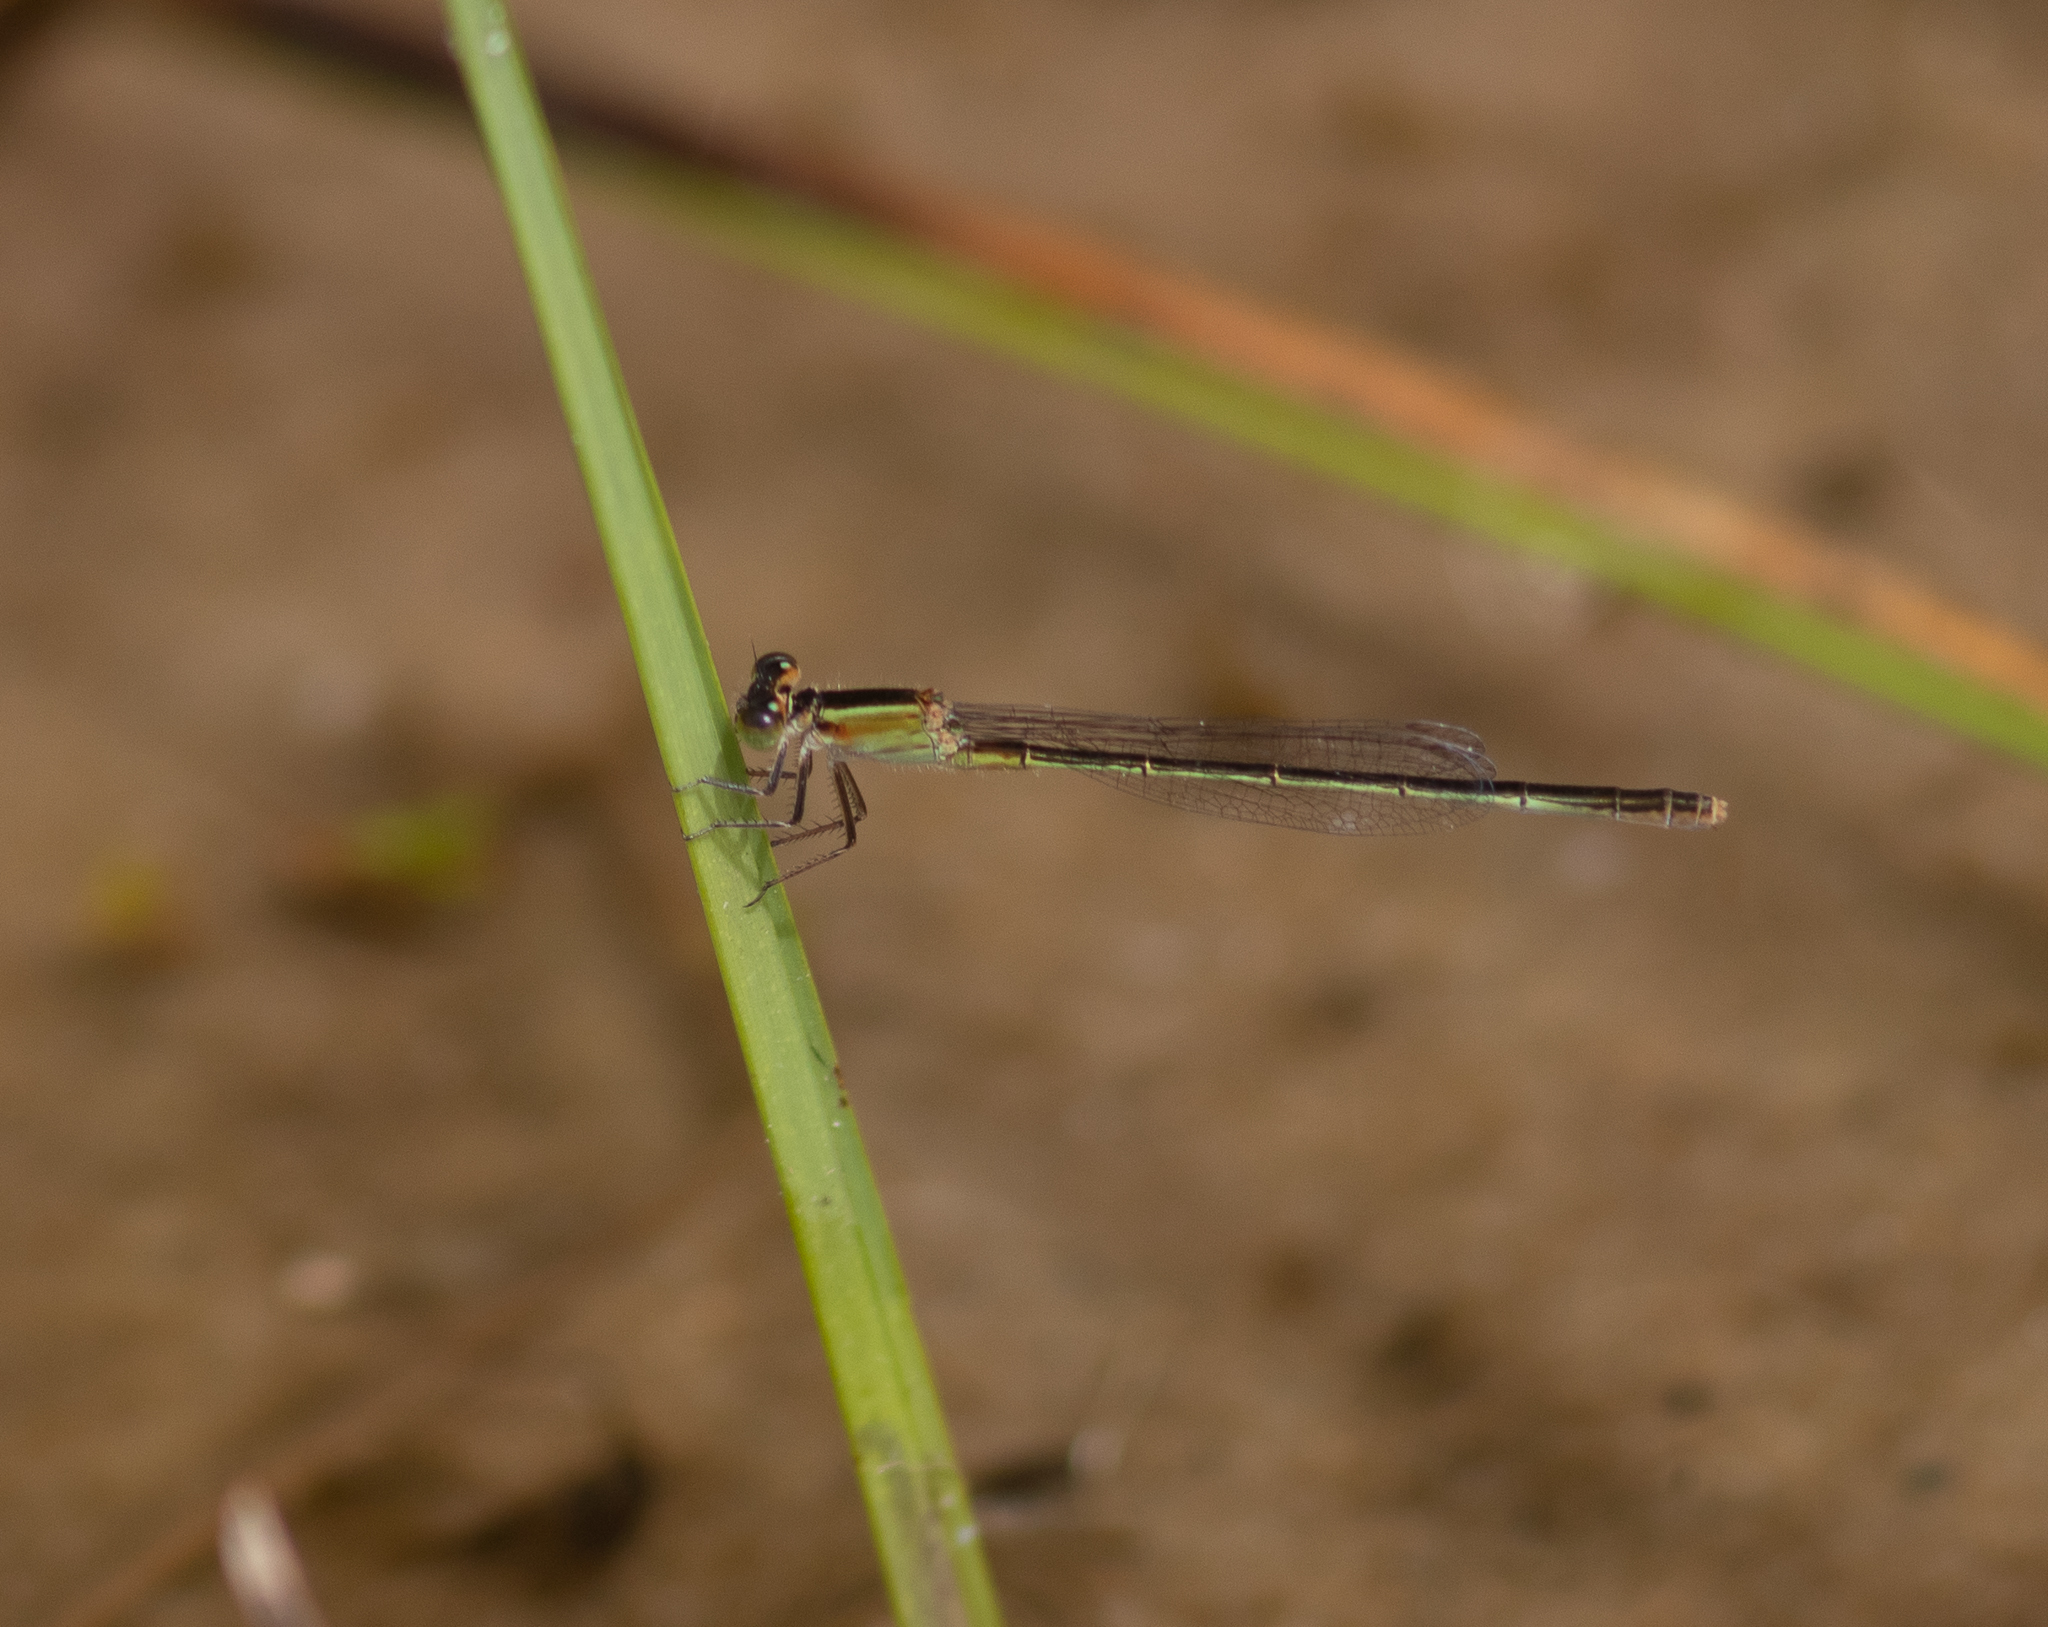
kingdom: Animalia
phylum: Arthropoda
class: Insecta
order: Odonata
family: Coenagrionidae
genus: Ischnura
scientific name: Ischnura ramburii
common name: Rambur's forktail
